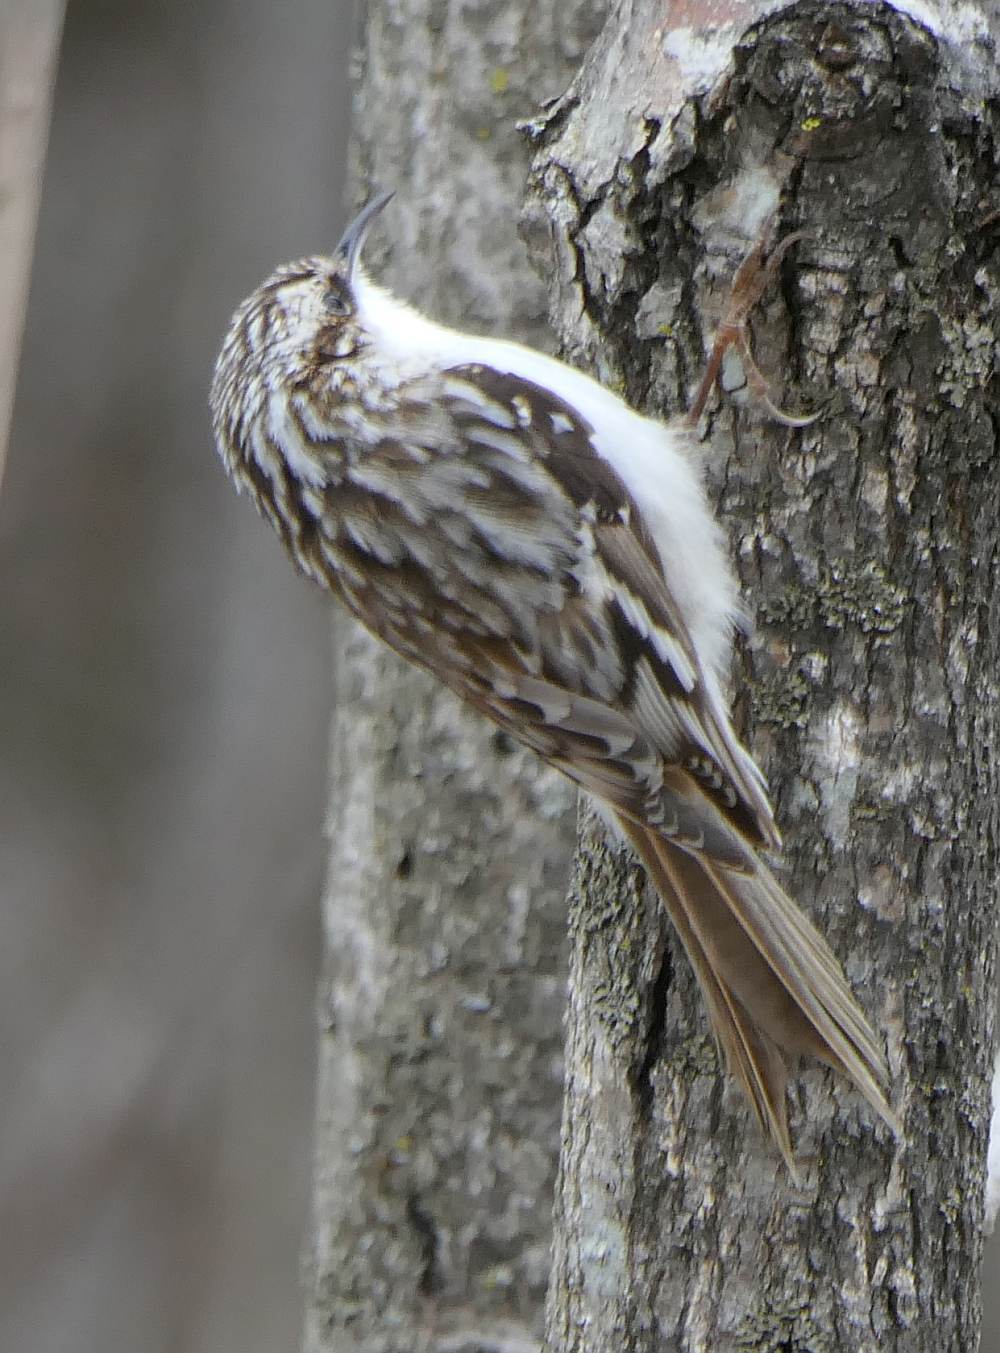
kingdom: Animalia
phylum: Chordata
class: Aves
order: Passeriformes
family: Certhiidae
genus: Certhia
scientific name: Certhia americana
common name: Brown creeper
